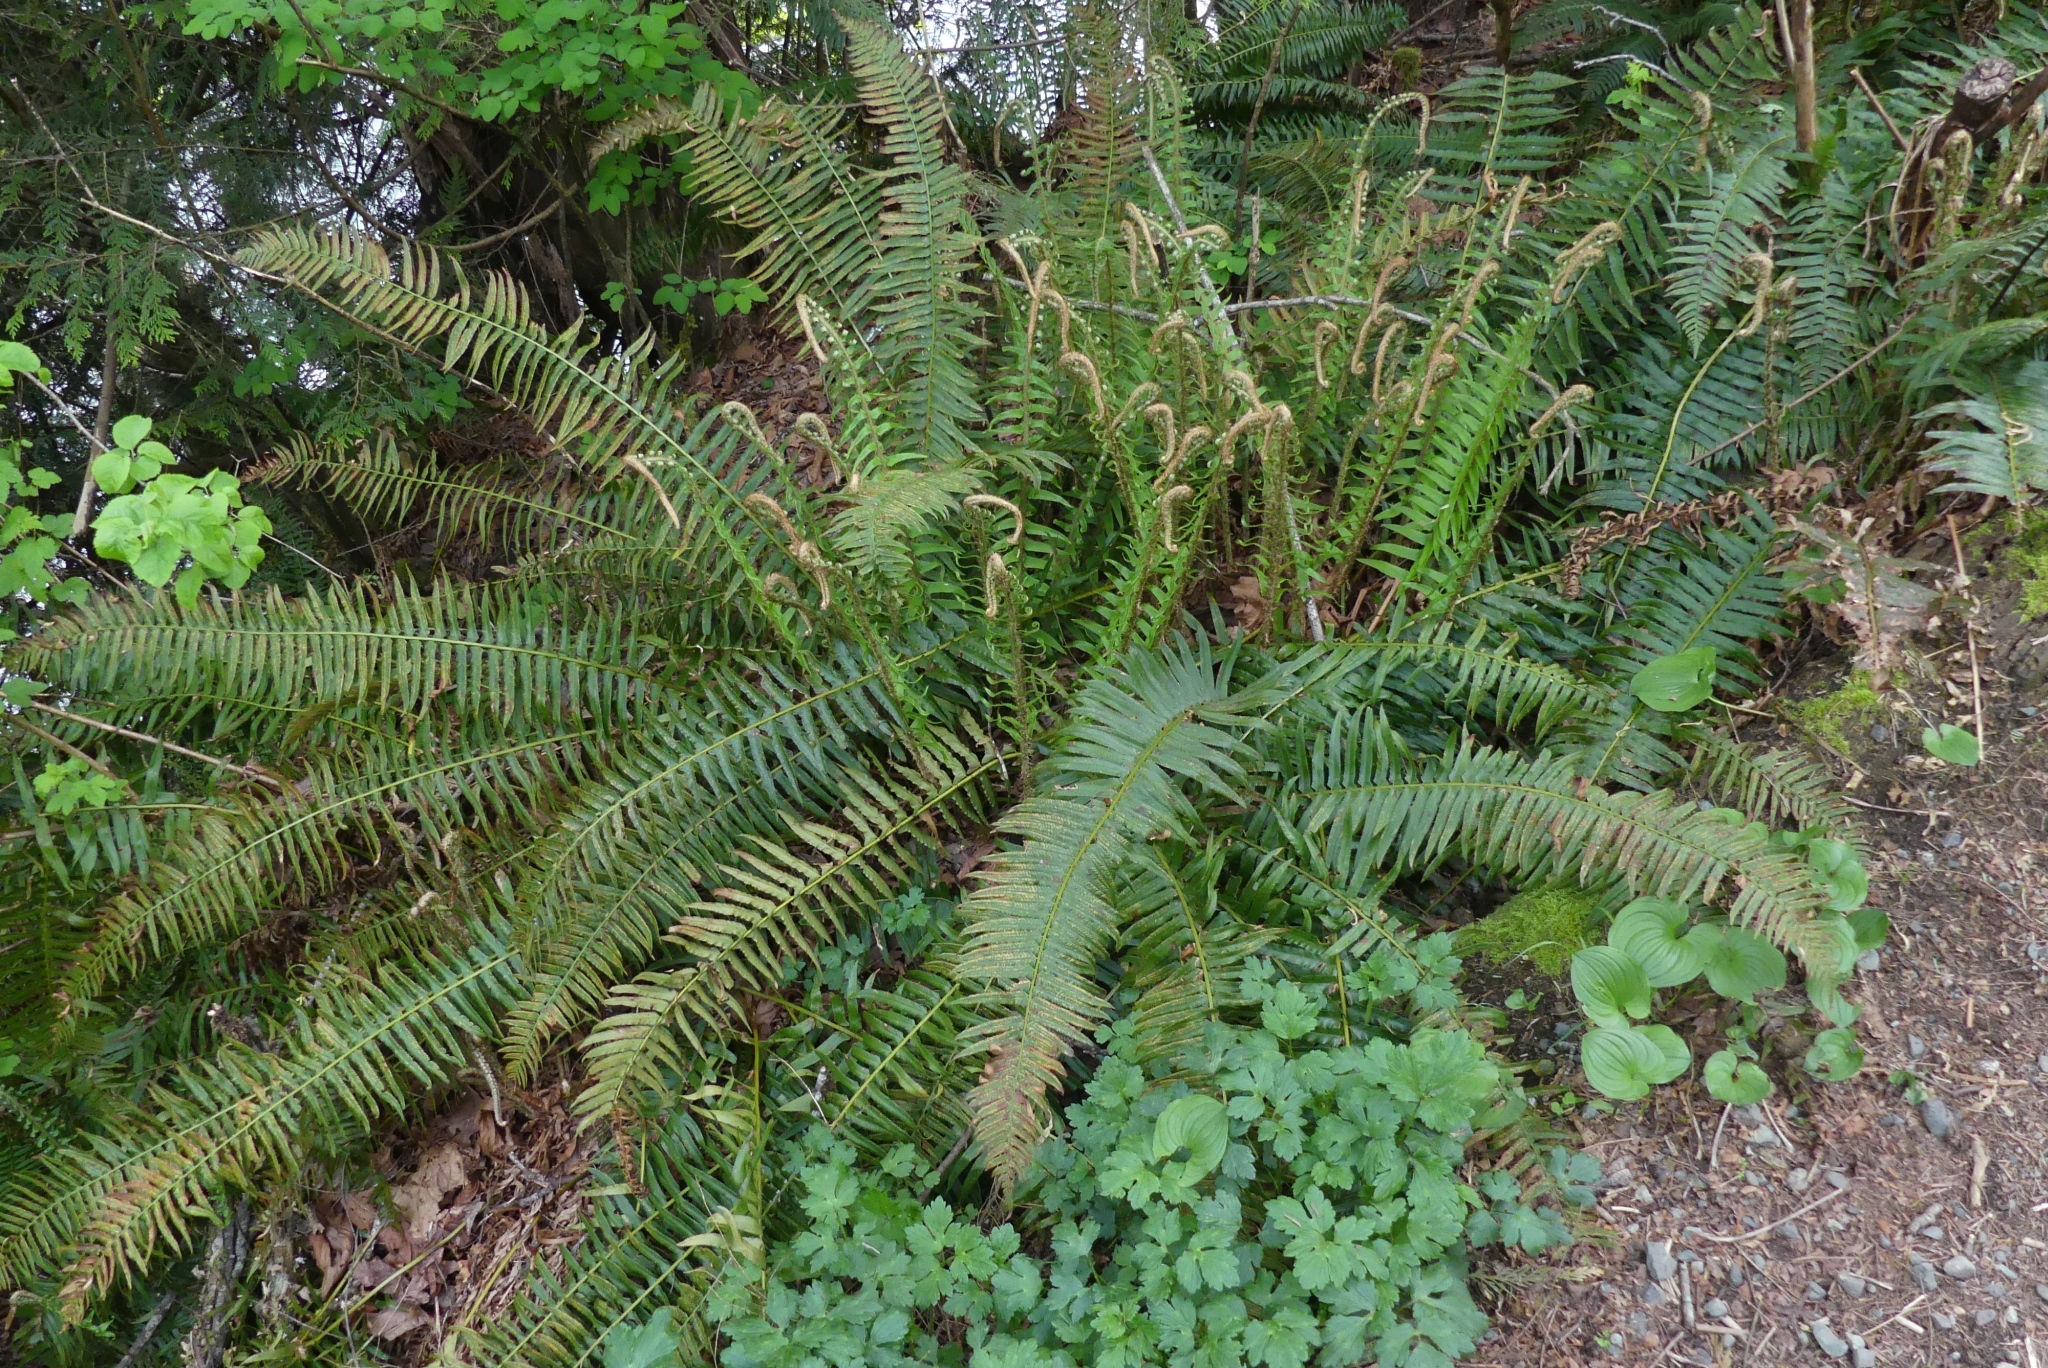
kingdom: Plantae
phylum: Tracheophyta
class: Polypodiopsida
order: Polypodiales
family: Dryopteridaceae
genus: Polystichum
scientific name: Polystichum munitum
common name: Western sword-fern
